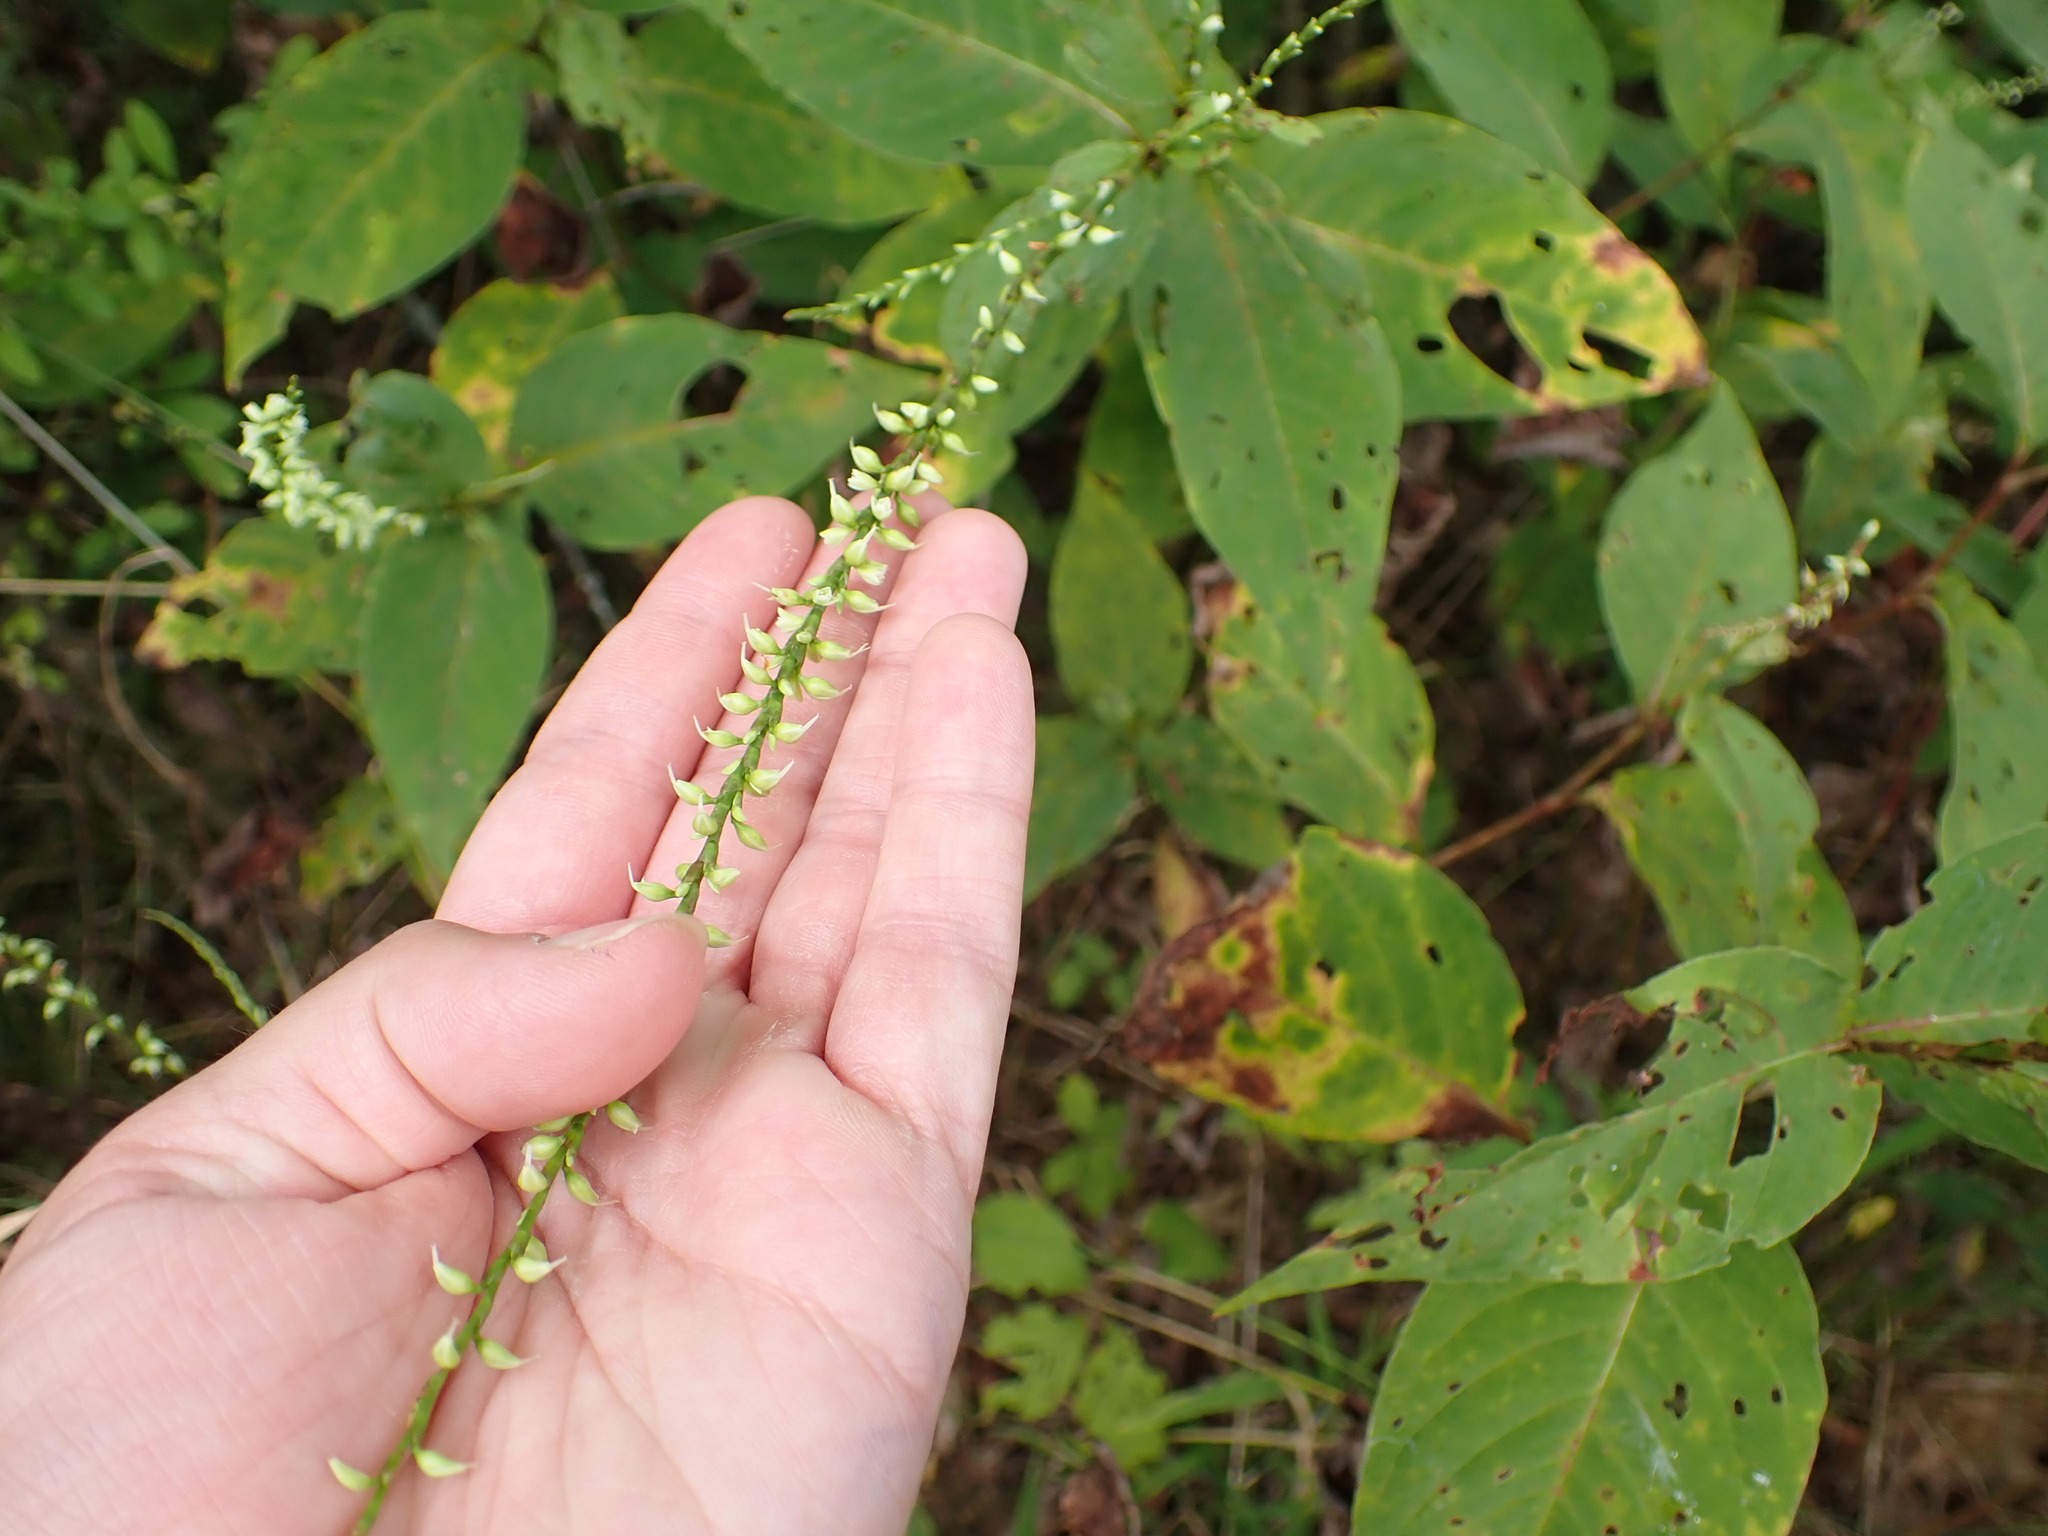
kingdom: Plantae
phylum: Tracheophyta
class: Magnoliopsida
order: Caryophyllales
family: Polygonaceae
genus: Persicaria
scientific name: Persicaria virginiana
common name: Jumpseed
